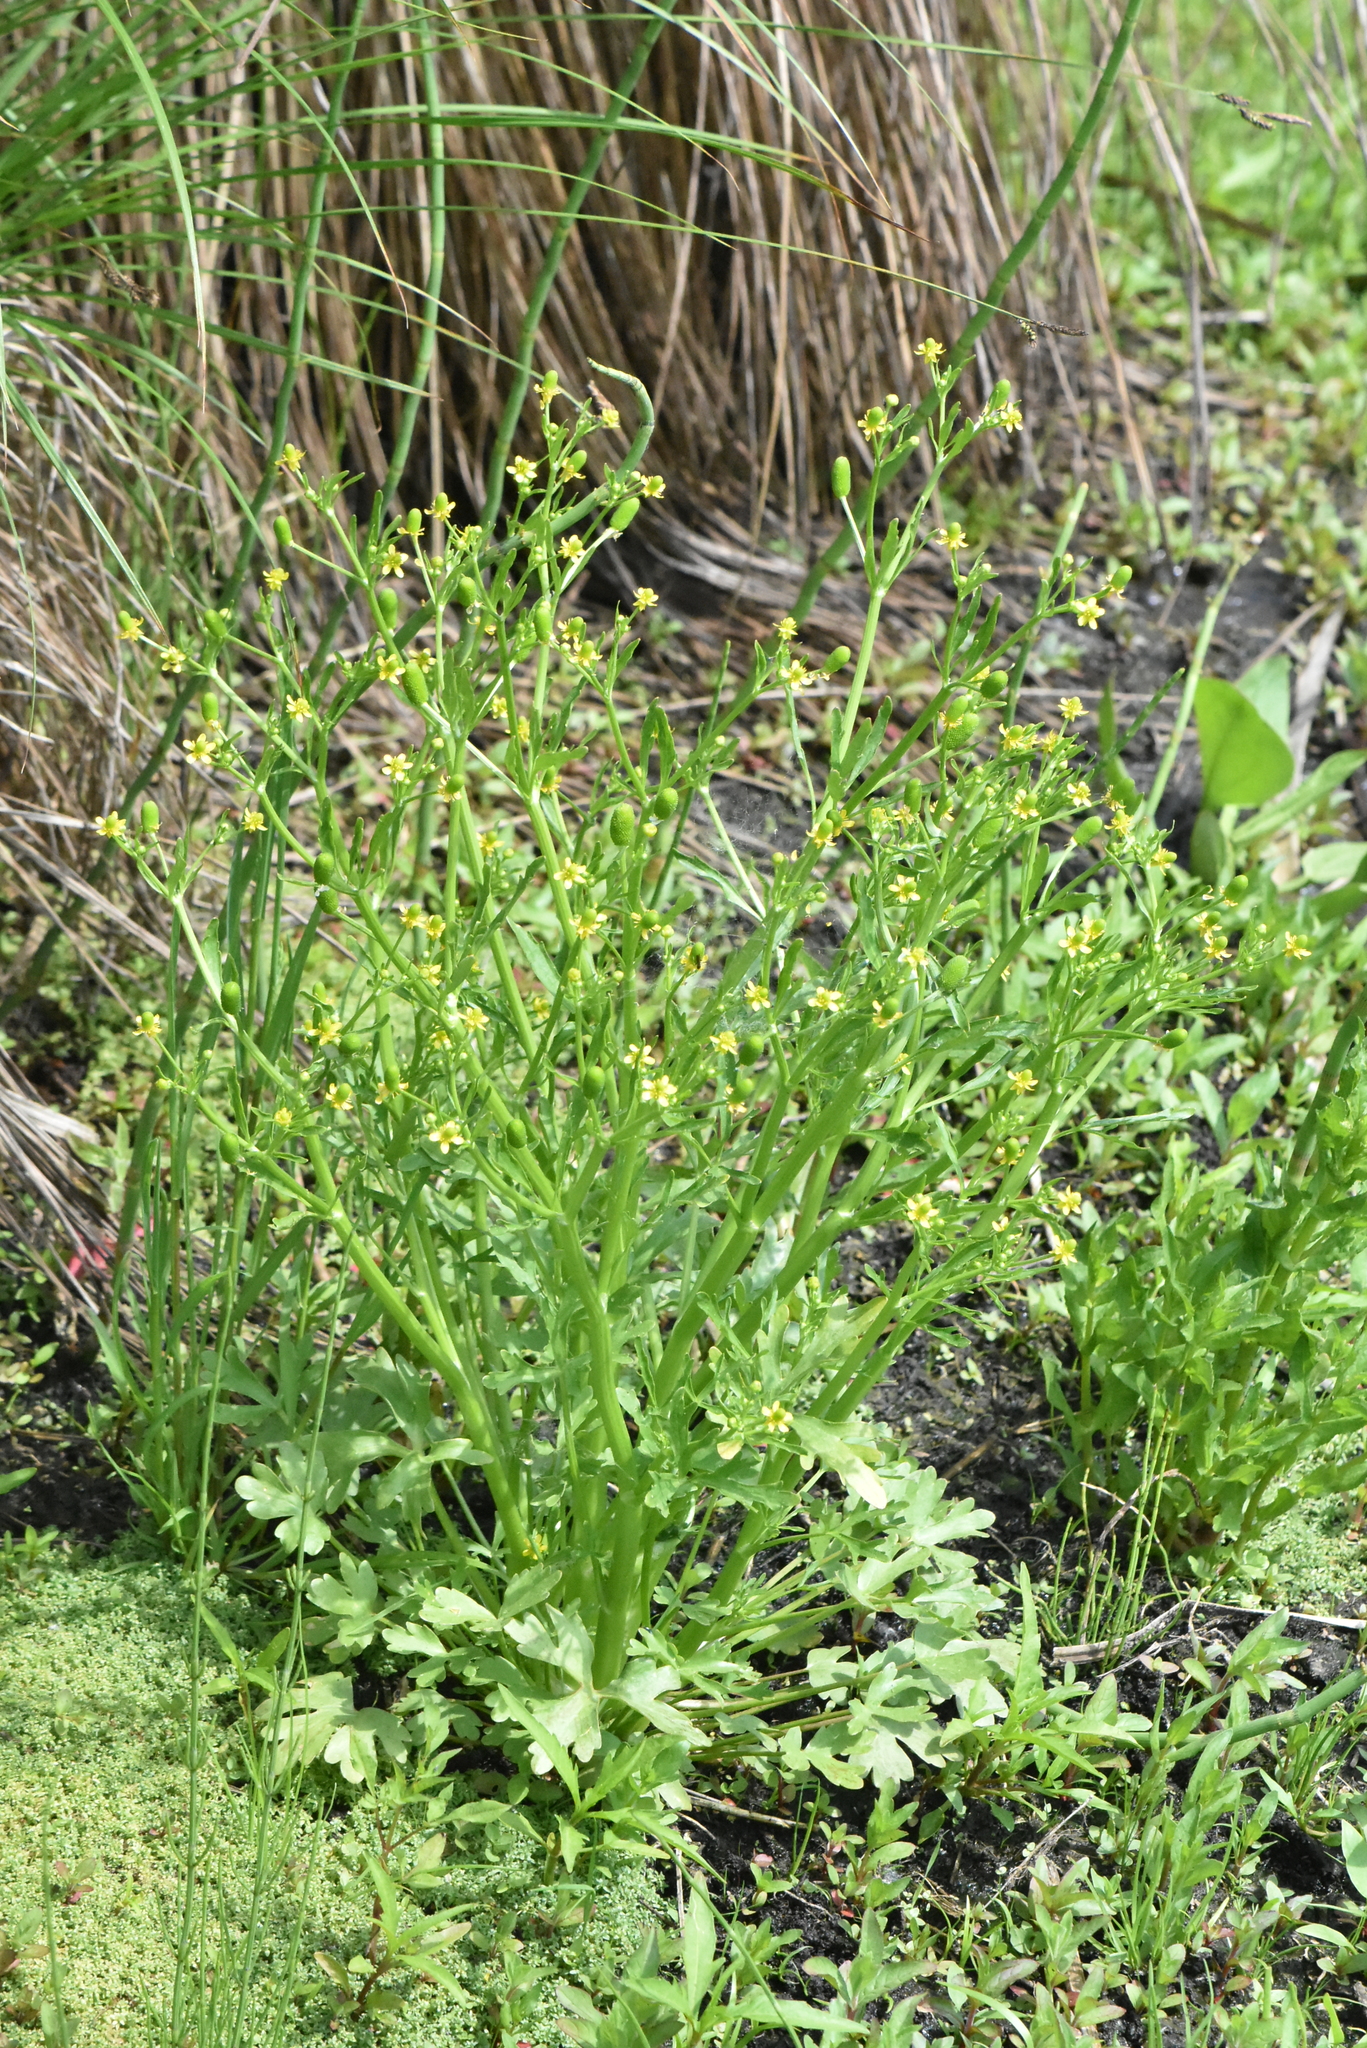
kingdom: Plantae
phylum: Tracheophyta
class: Magnoliopsida
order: Ranunculales
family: Ranunculaceae
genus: Ranunculus
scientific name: Ranunculus sceleratus
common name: Celery-leaved buttercup
